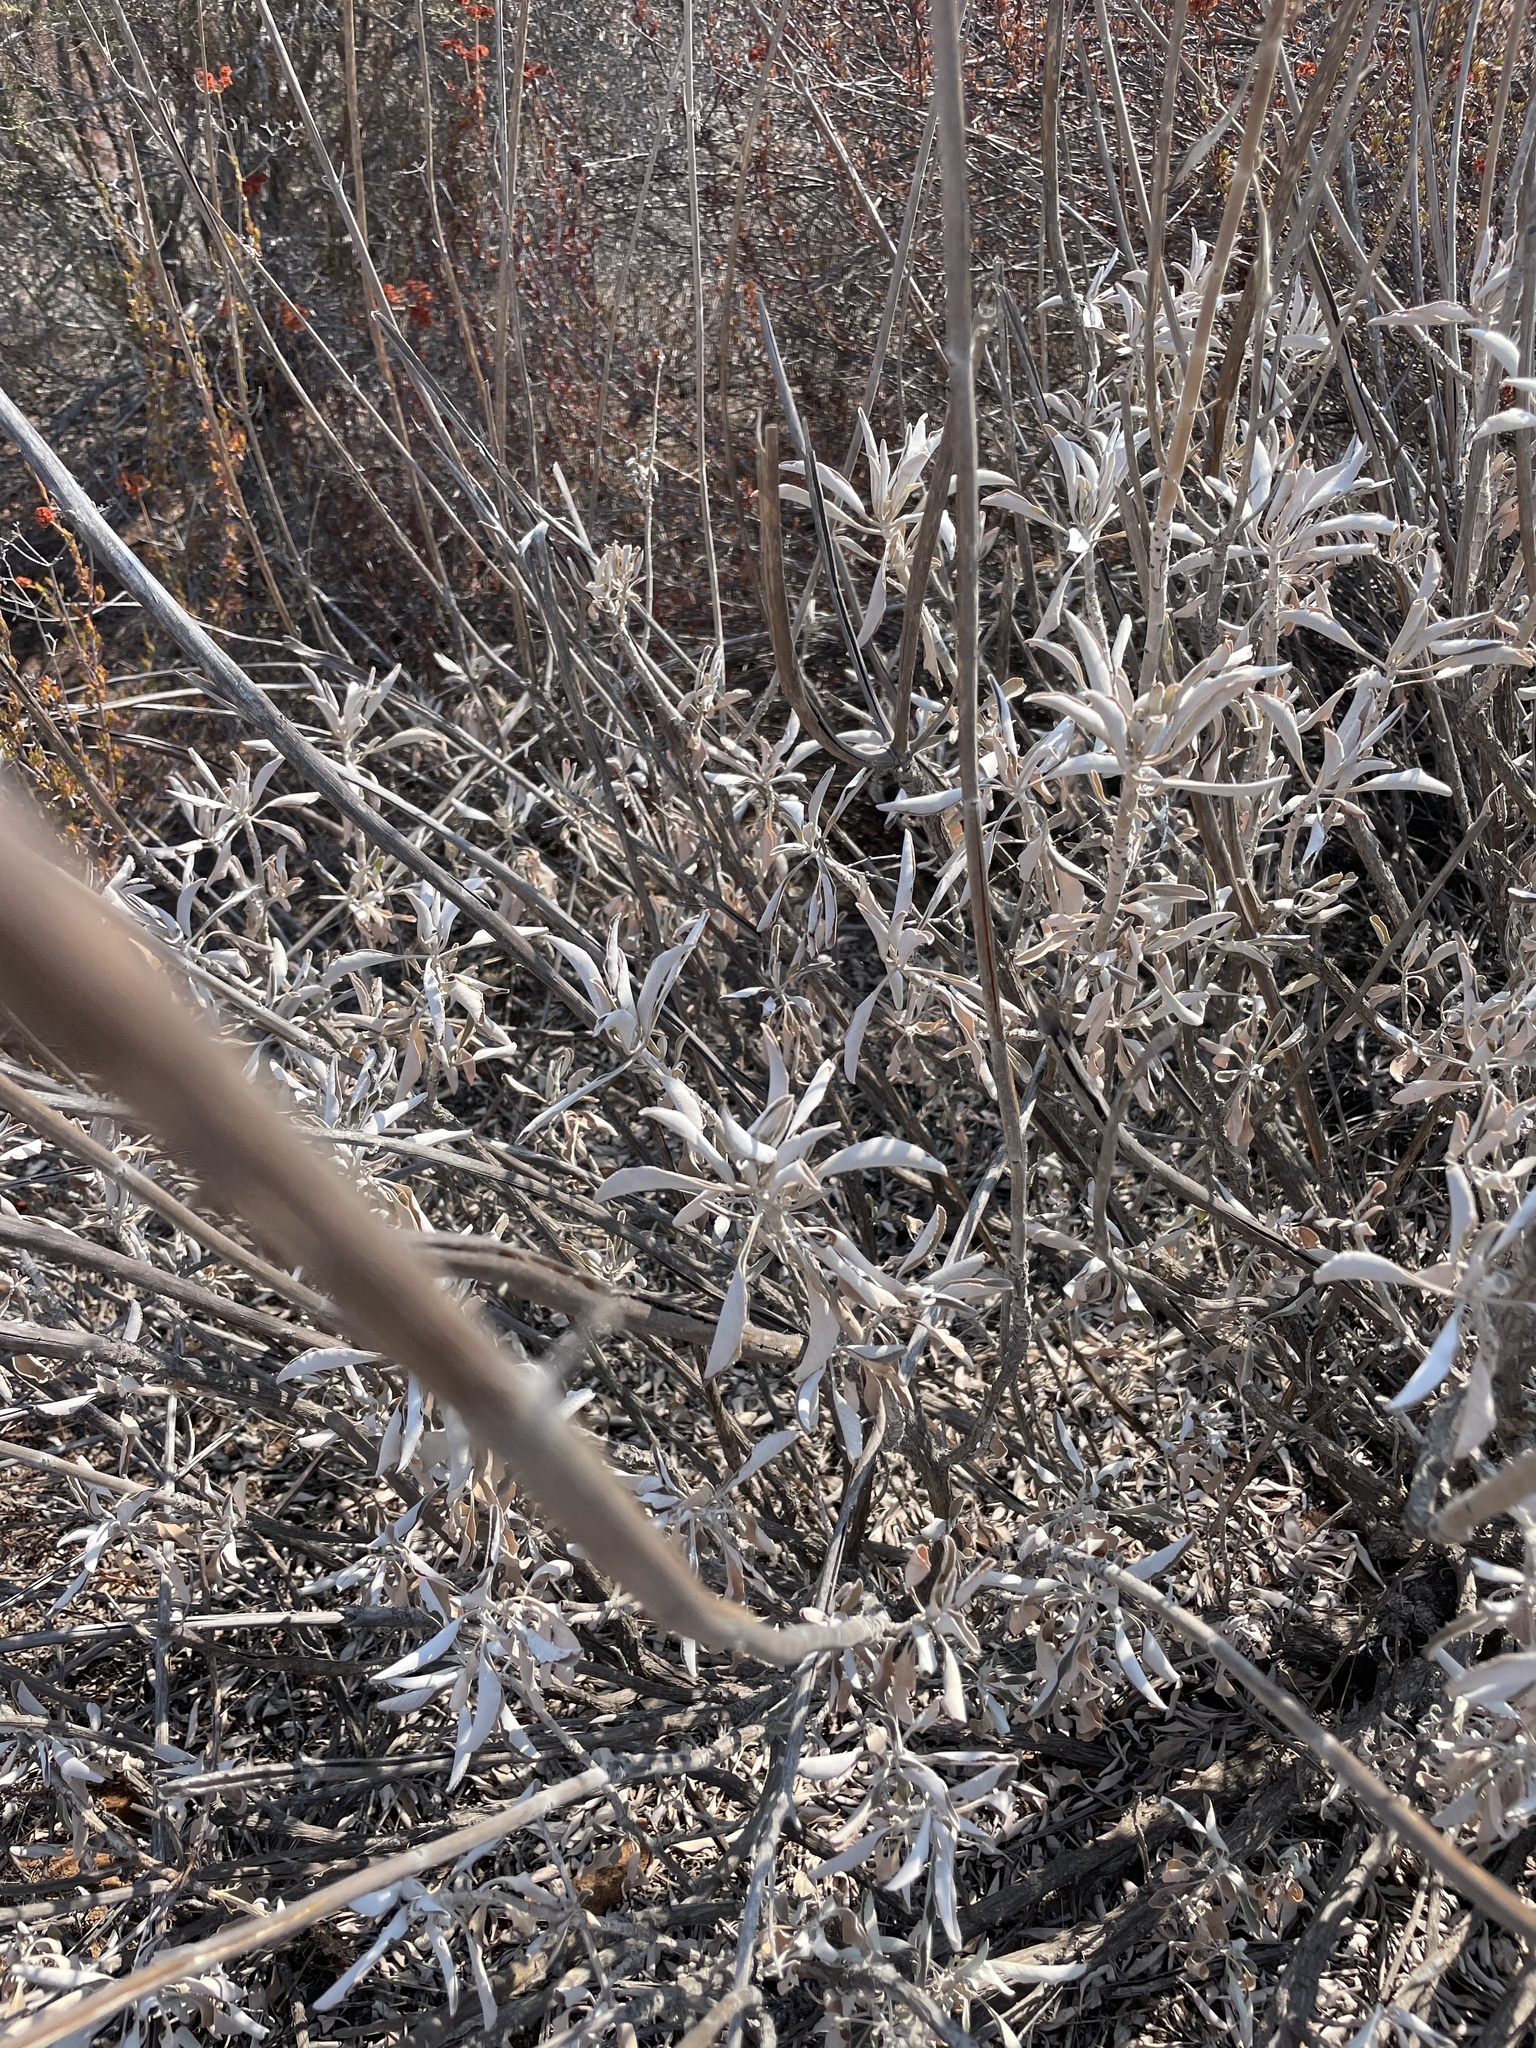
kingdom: Plantae
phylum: Tracheophyta
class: Magnoliopsida
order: Lamiales
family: Lamiaceae
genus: Salvia
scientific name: Salvia apiana
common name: White sage
